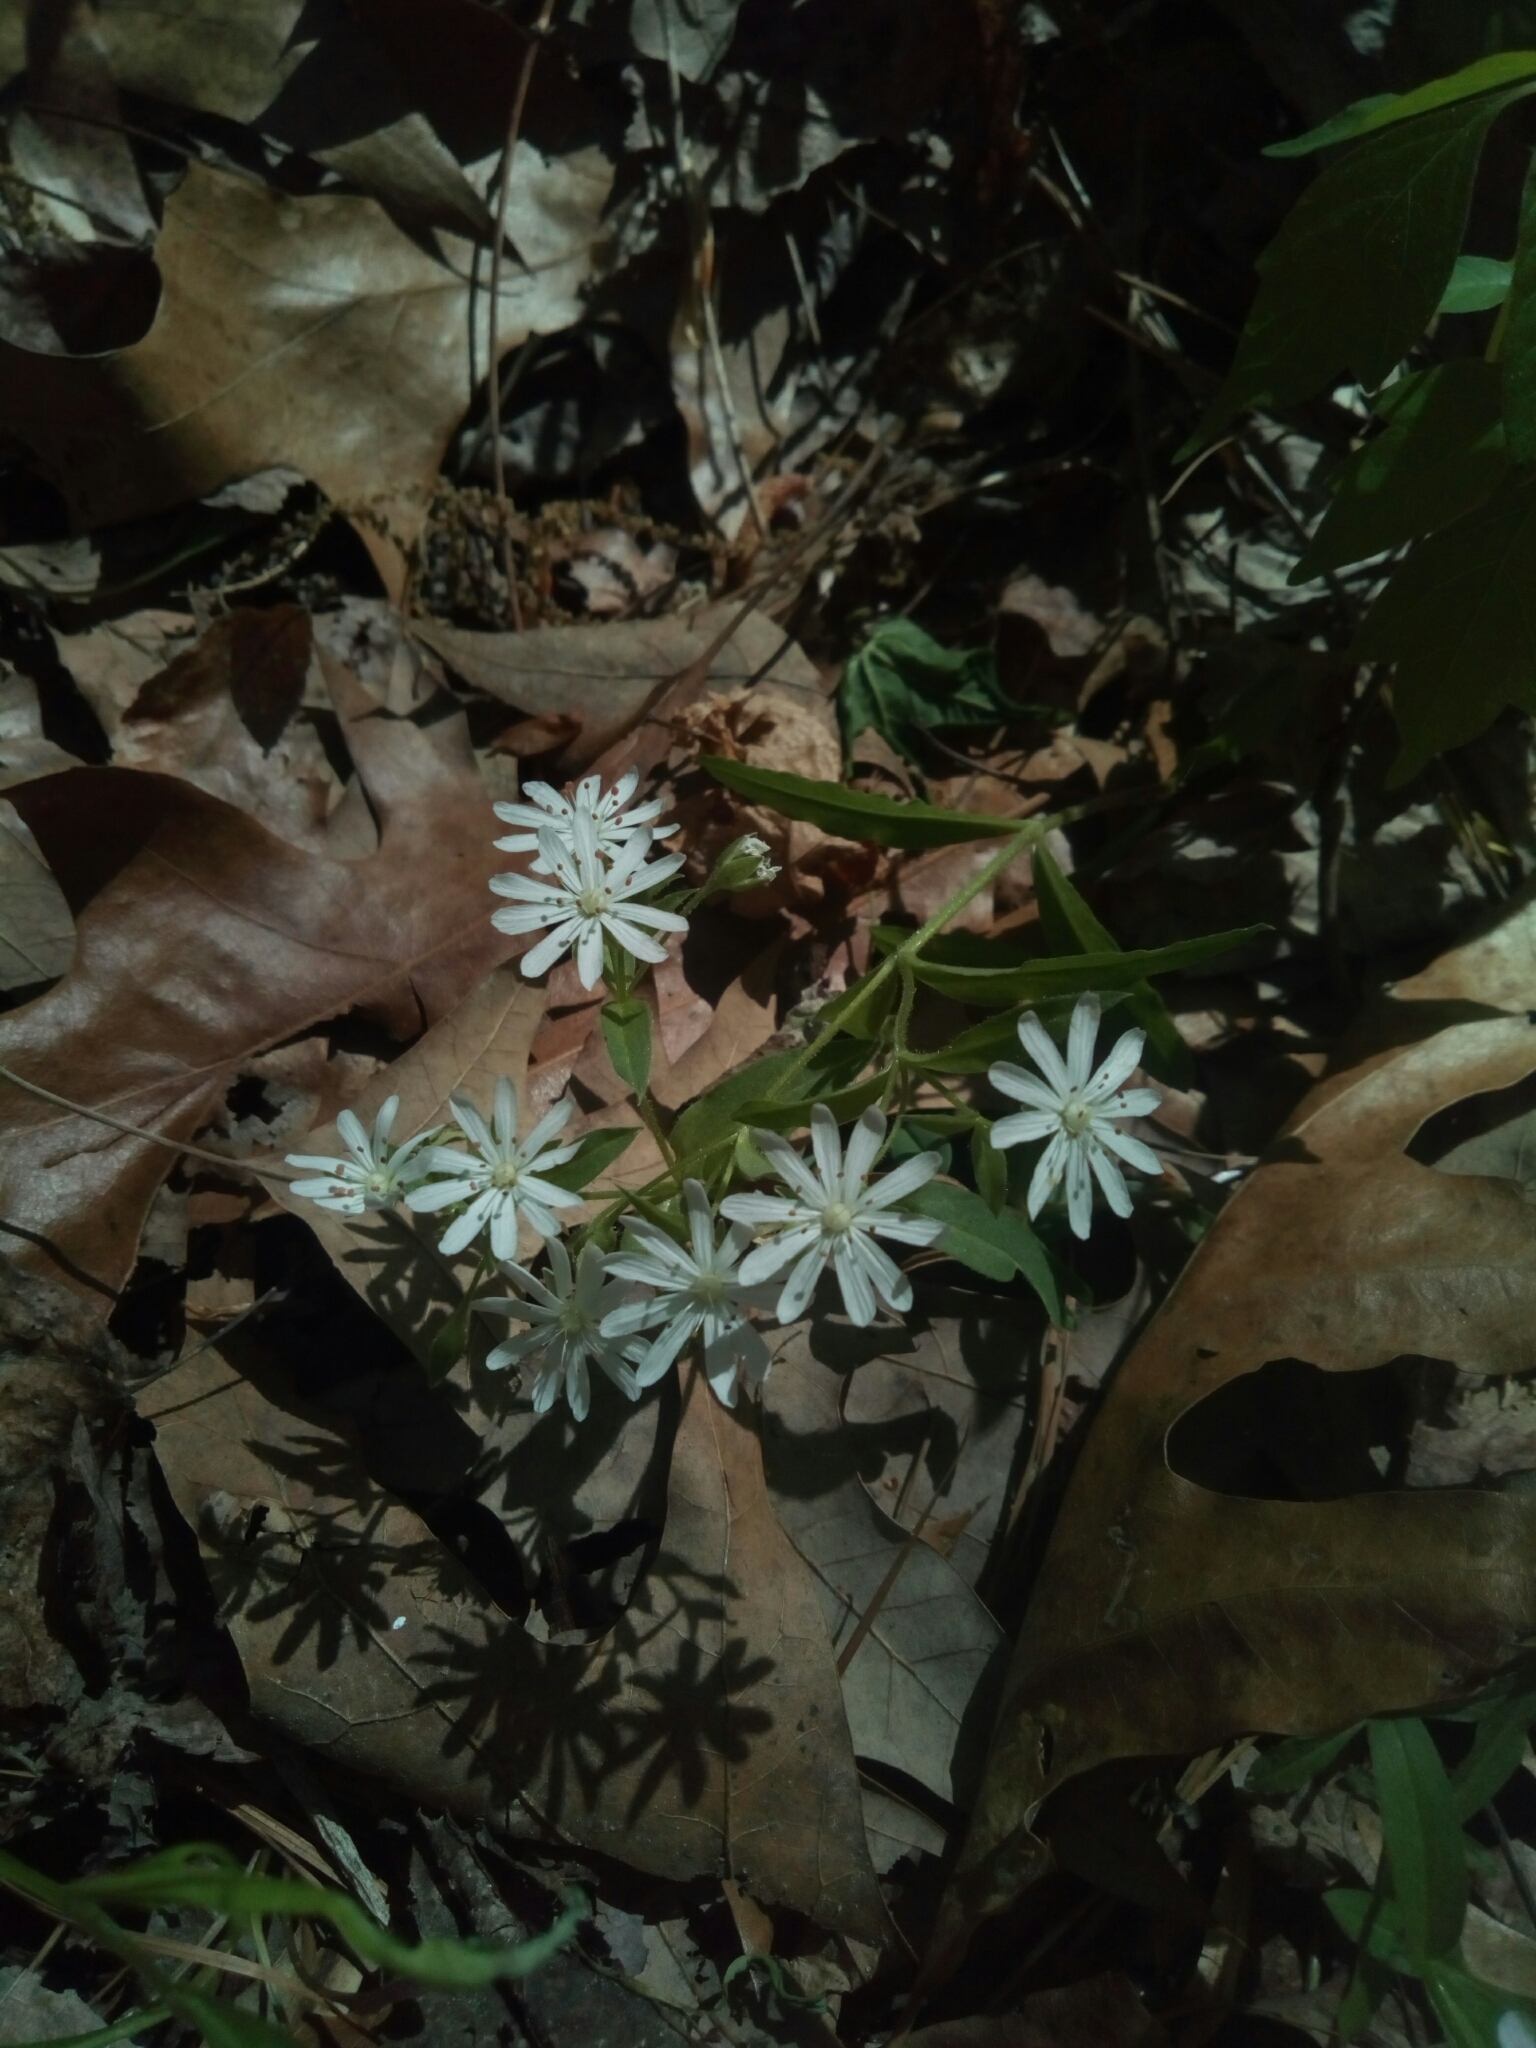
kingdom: Plantae
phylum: Tracheophyta
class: Magnoliopsida
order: Caryophyllales
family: Caryophyllaceae
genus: Stellaria
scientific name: Stellaria pubera
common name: Star chickweed
